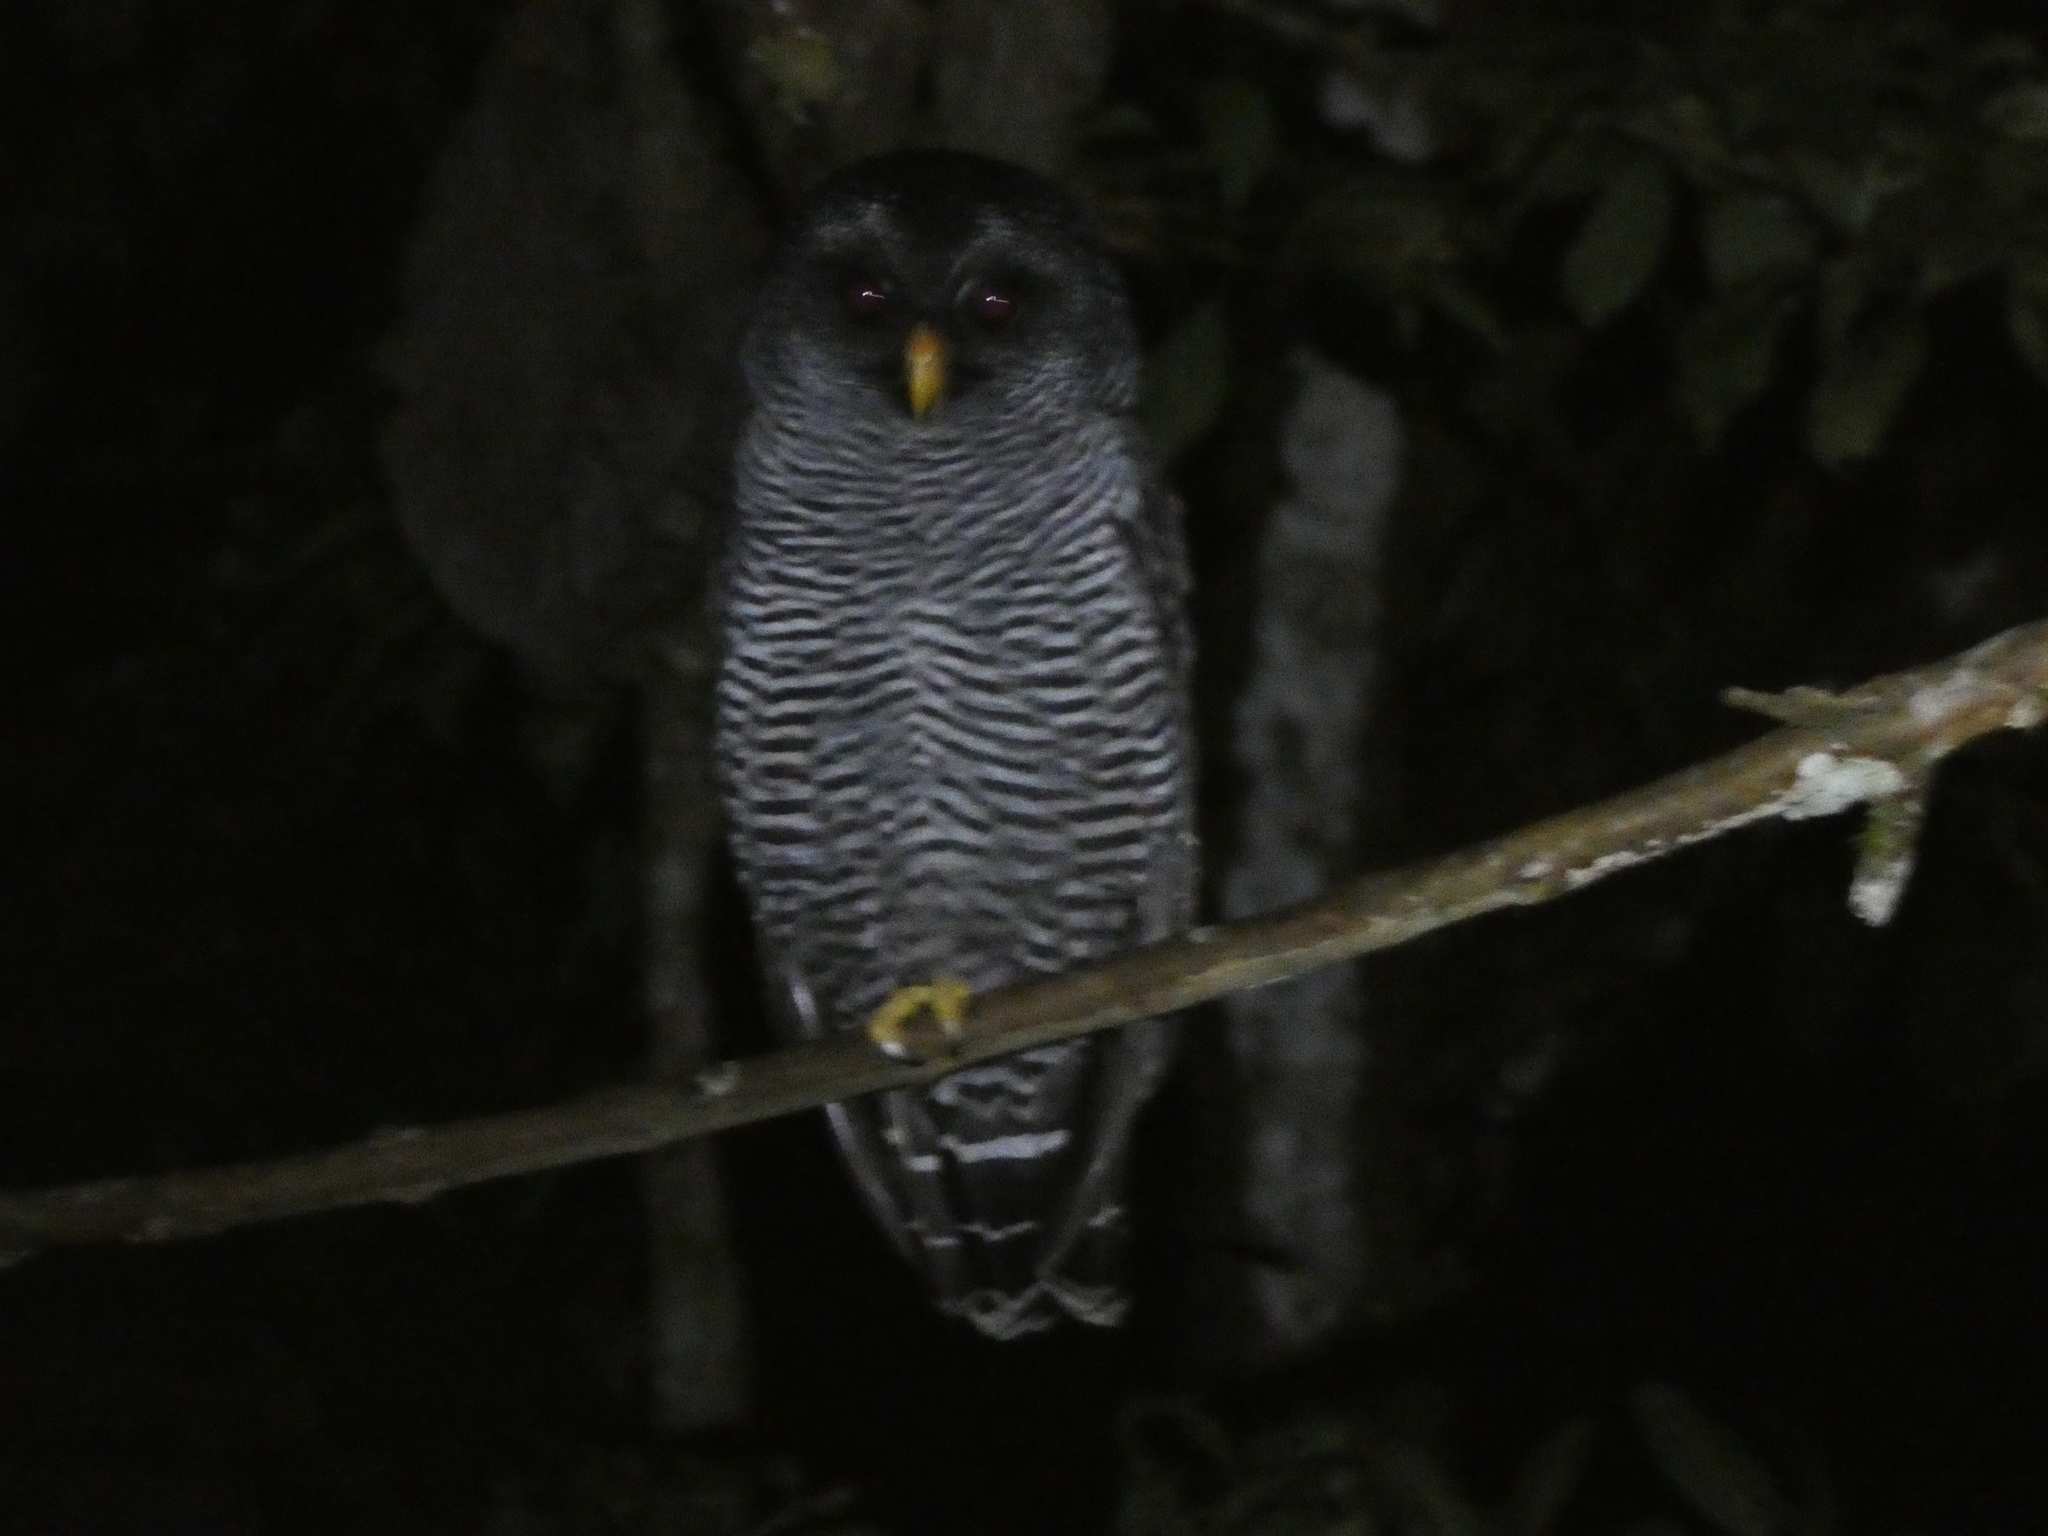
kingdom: Animalia
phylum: Chordata
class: Aves
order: Strigiformes
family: Strigidae
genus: Strix
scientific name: Strix huhula
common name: Black-banded owl
